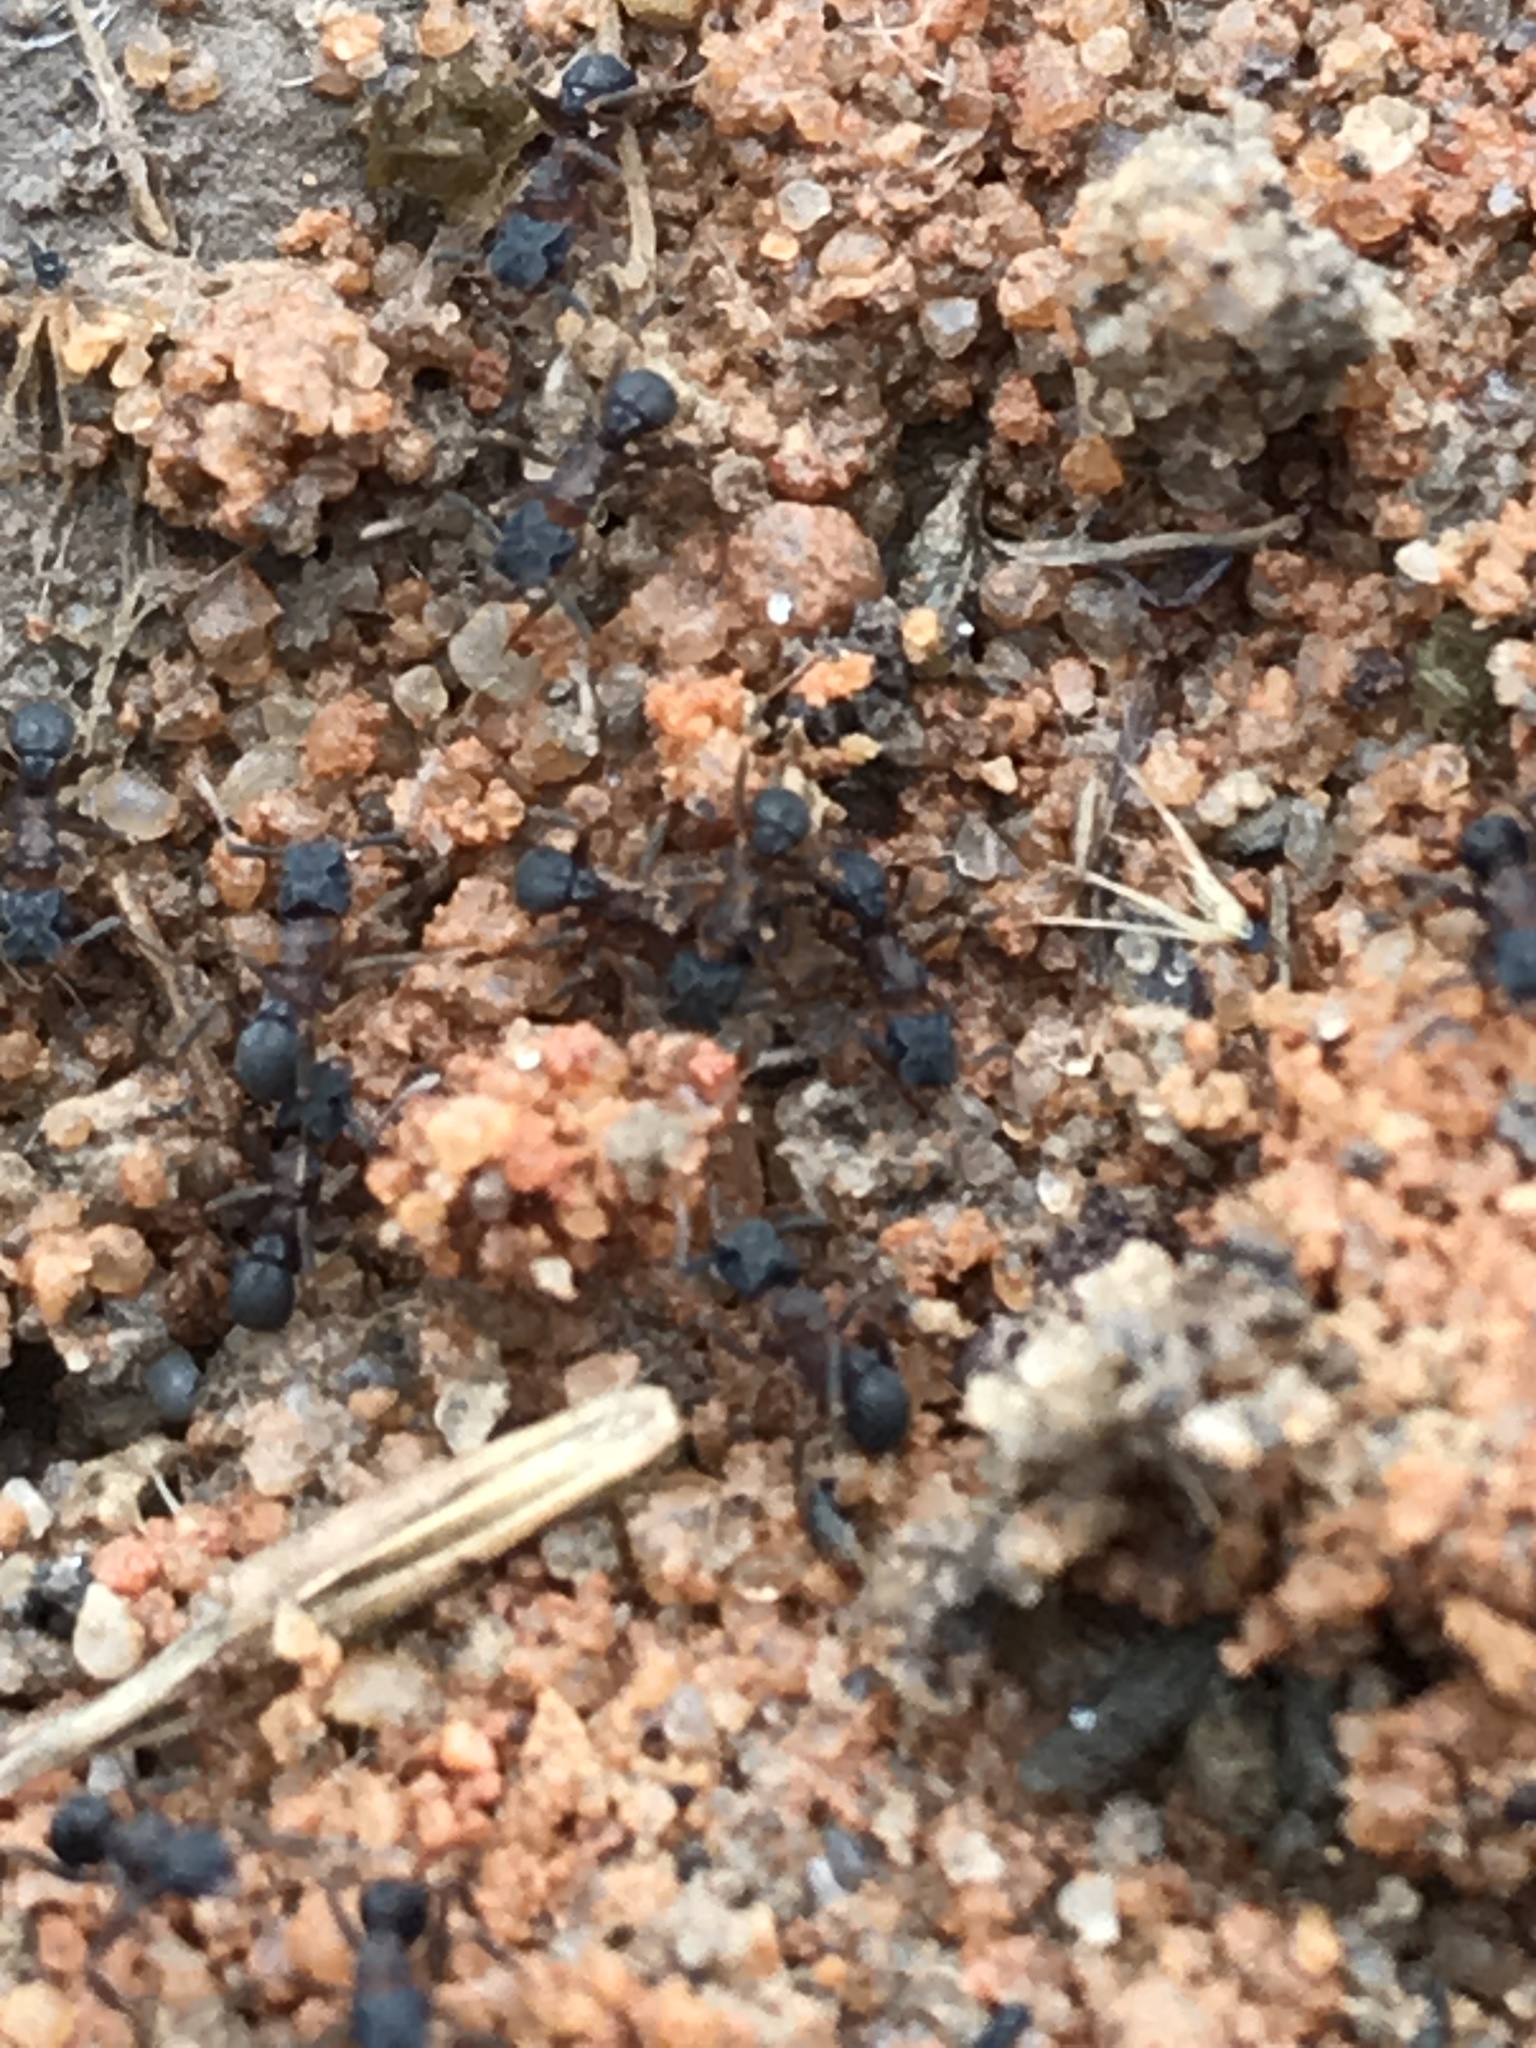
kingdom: Animalia
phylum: Arthropoda
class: Insecta
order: Hymenoptera
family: Formicidae
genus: Cyphomyrmex
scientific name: Cyphomyrmex rimosus
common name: Rimose fungus ant
